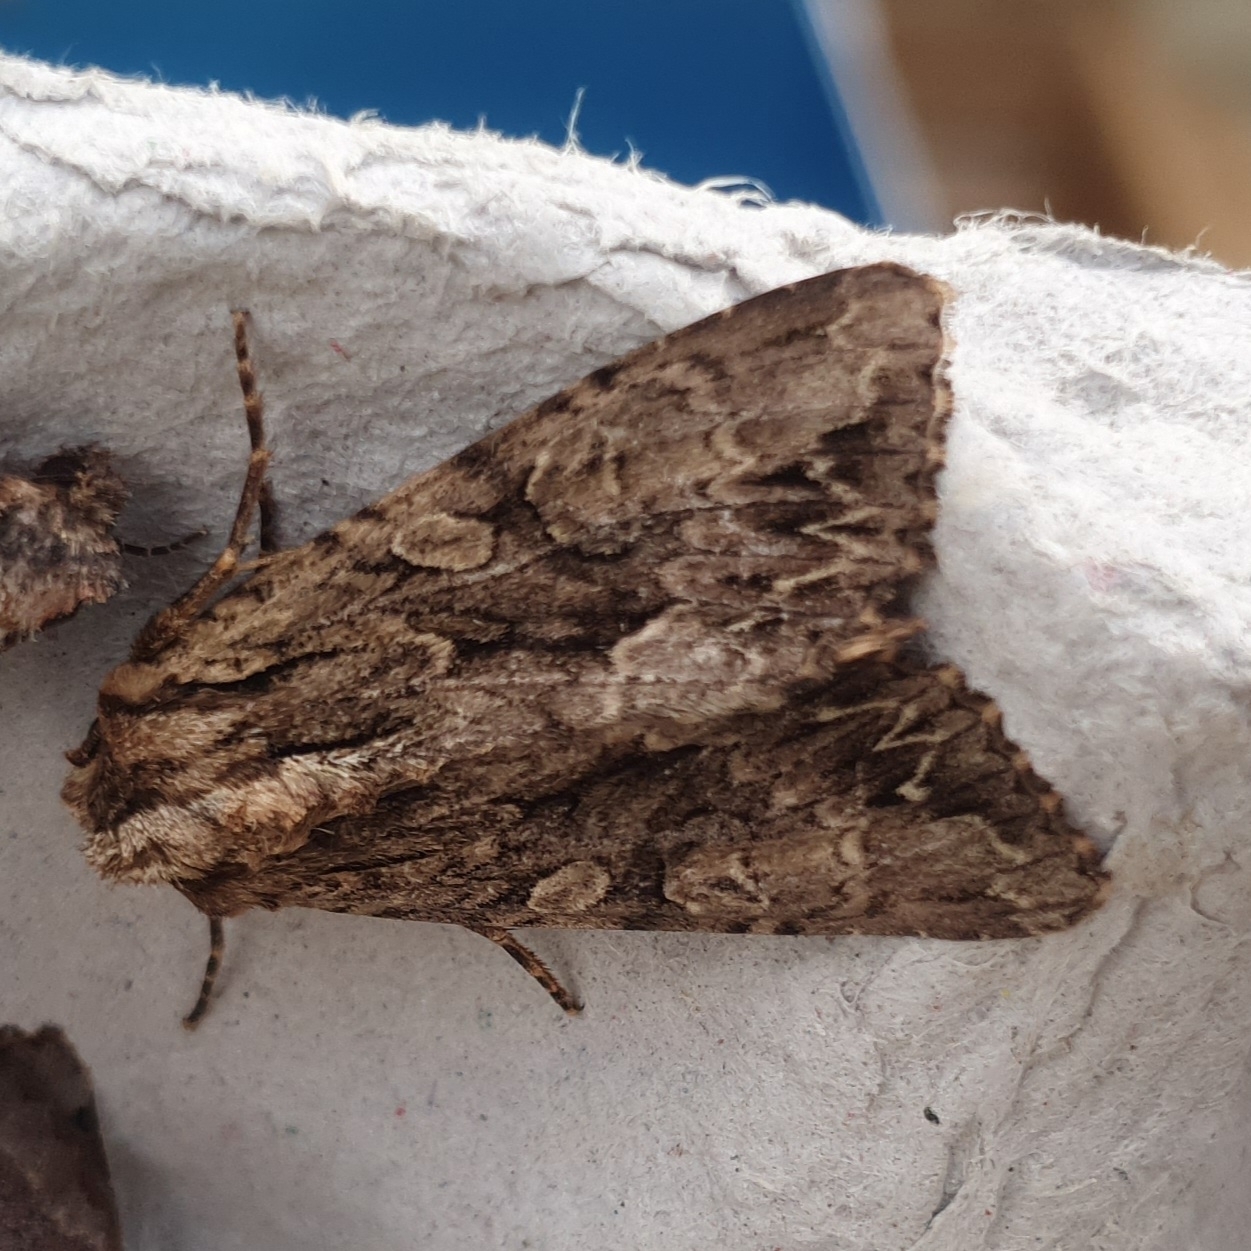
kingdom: Animalia
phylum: Arthropoda
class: Insecta
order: Lepidoptera
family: Noctuidae
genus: Apamea
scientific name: Apamea monoglypha
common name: Dark arches
